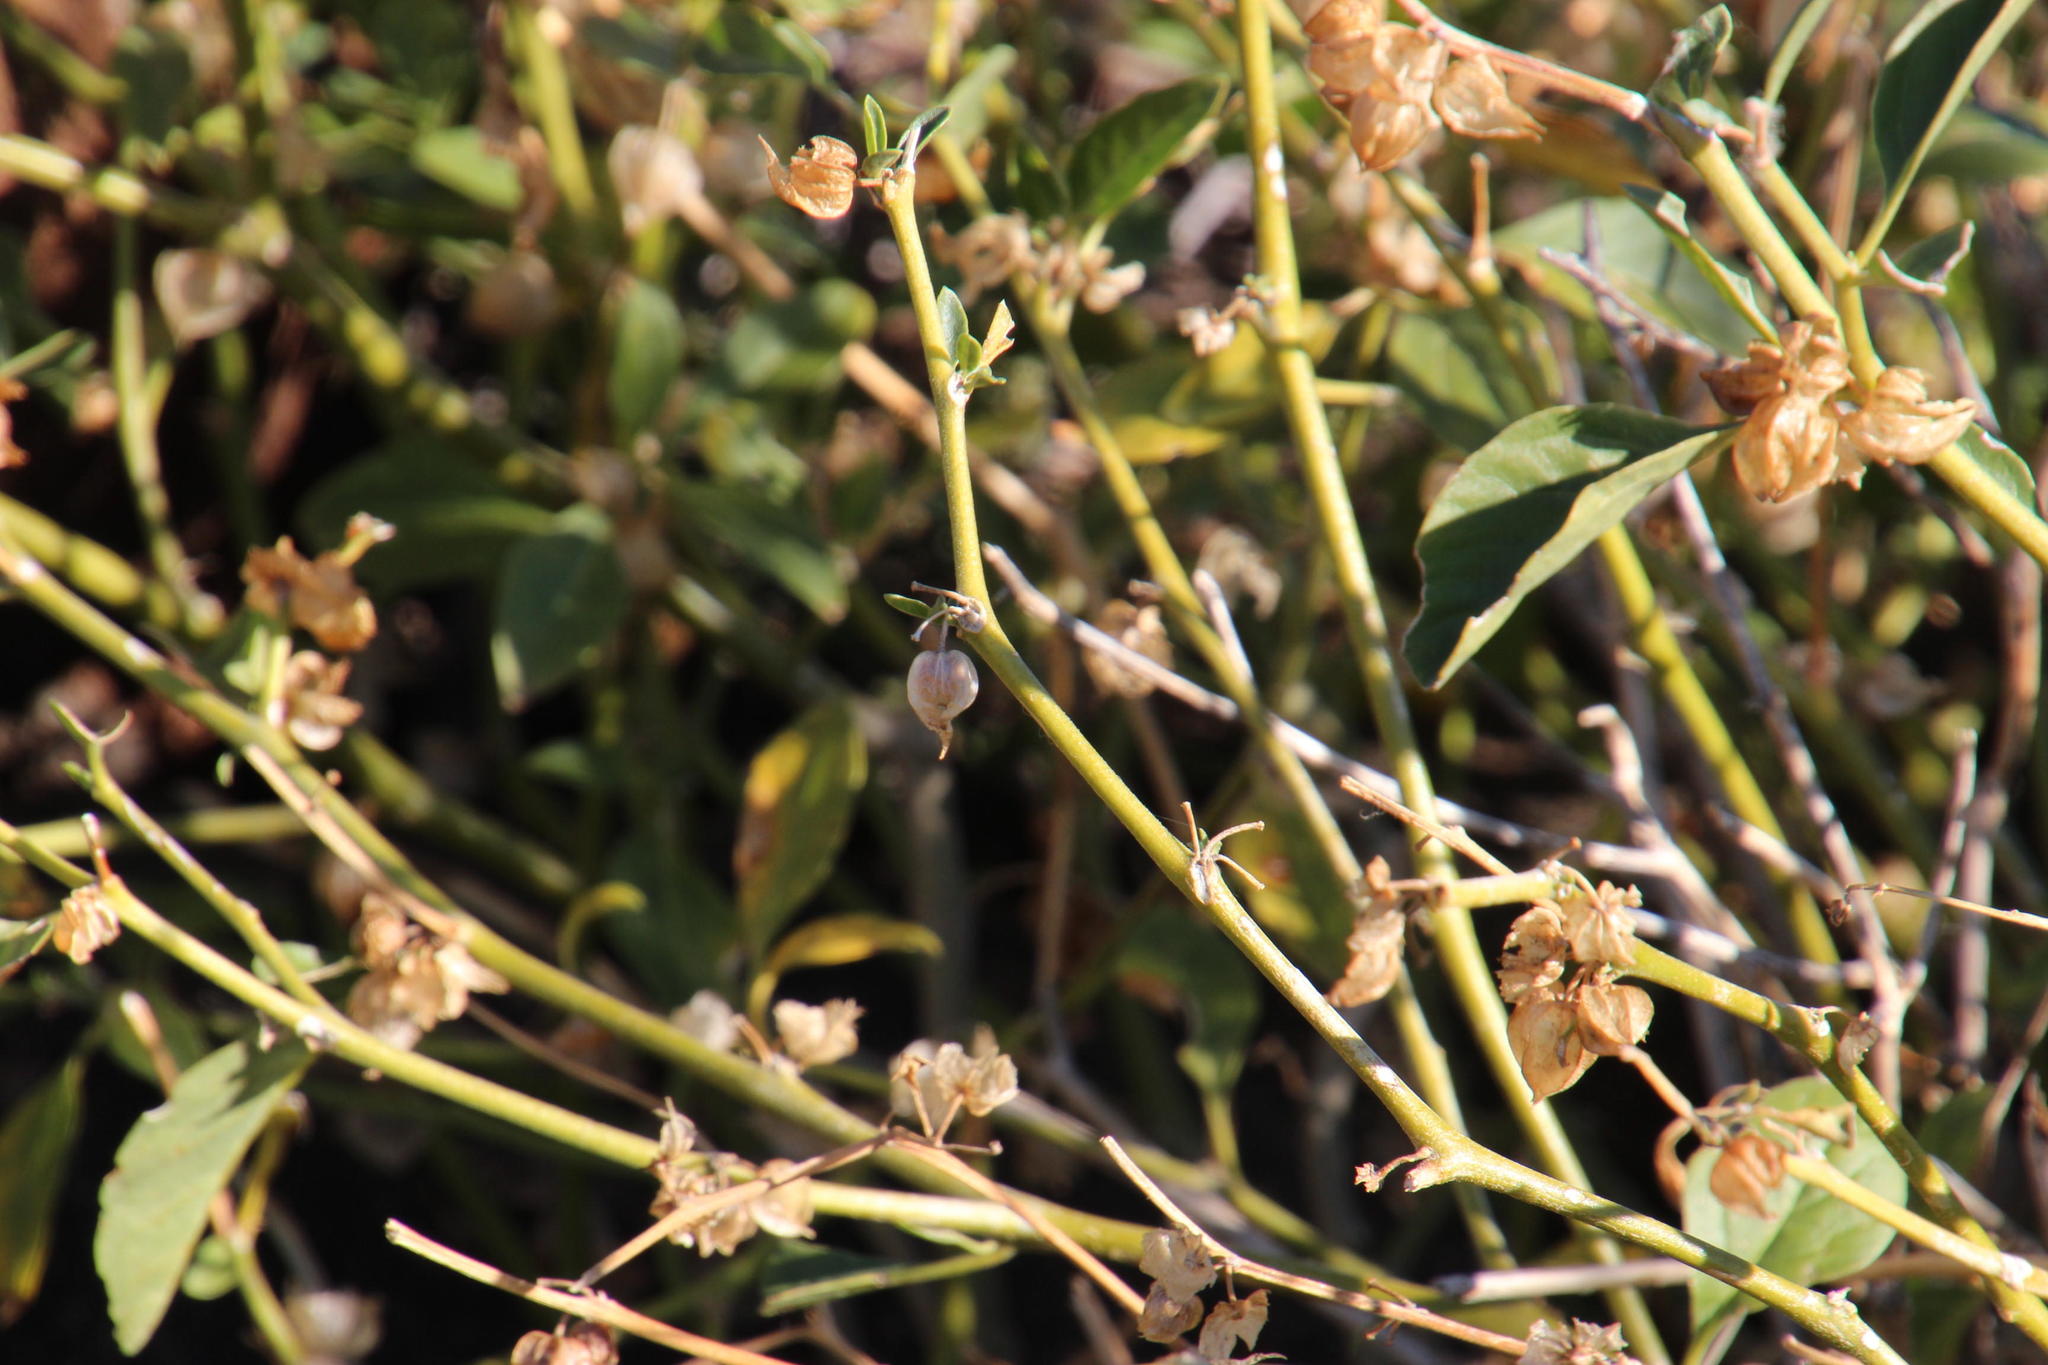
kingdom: Plantae
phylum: Tracheophyta
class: Magnoliopsida
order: Solanales
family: Solanaceae
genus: Withania
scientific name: Withania somnifera
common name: Winter-cherry
